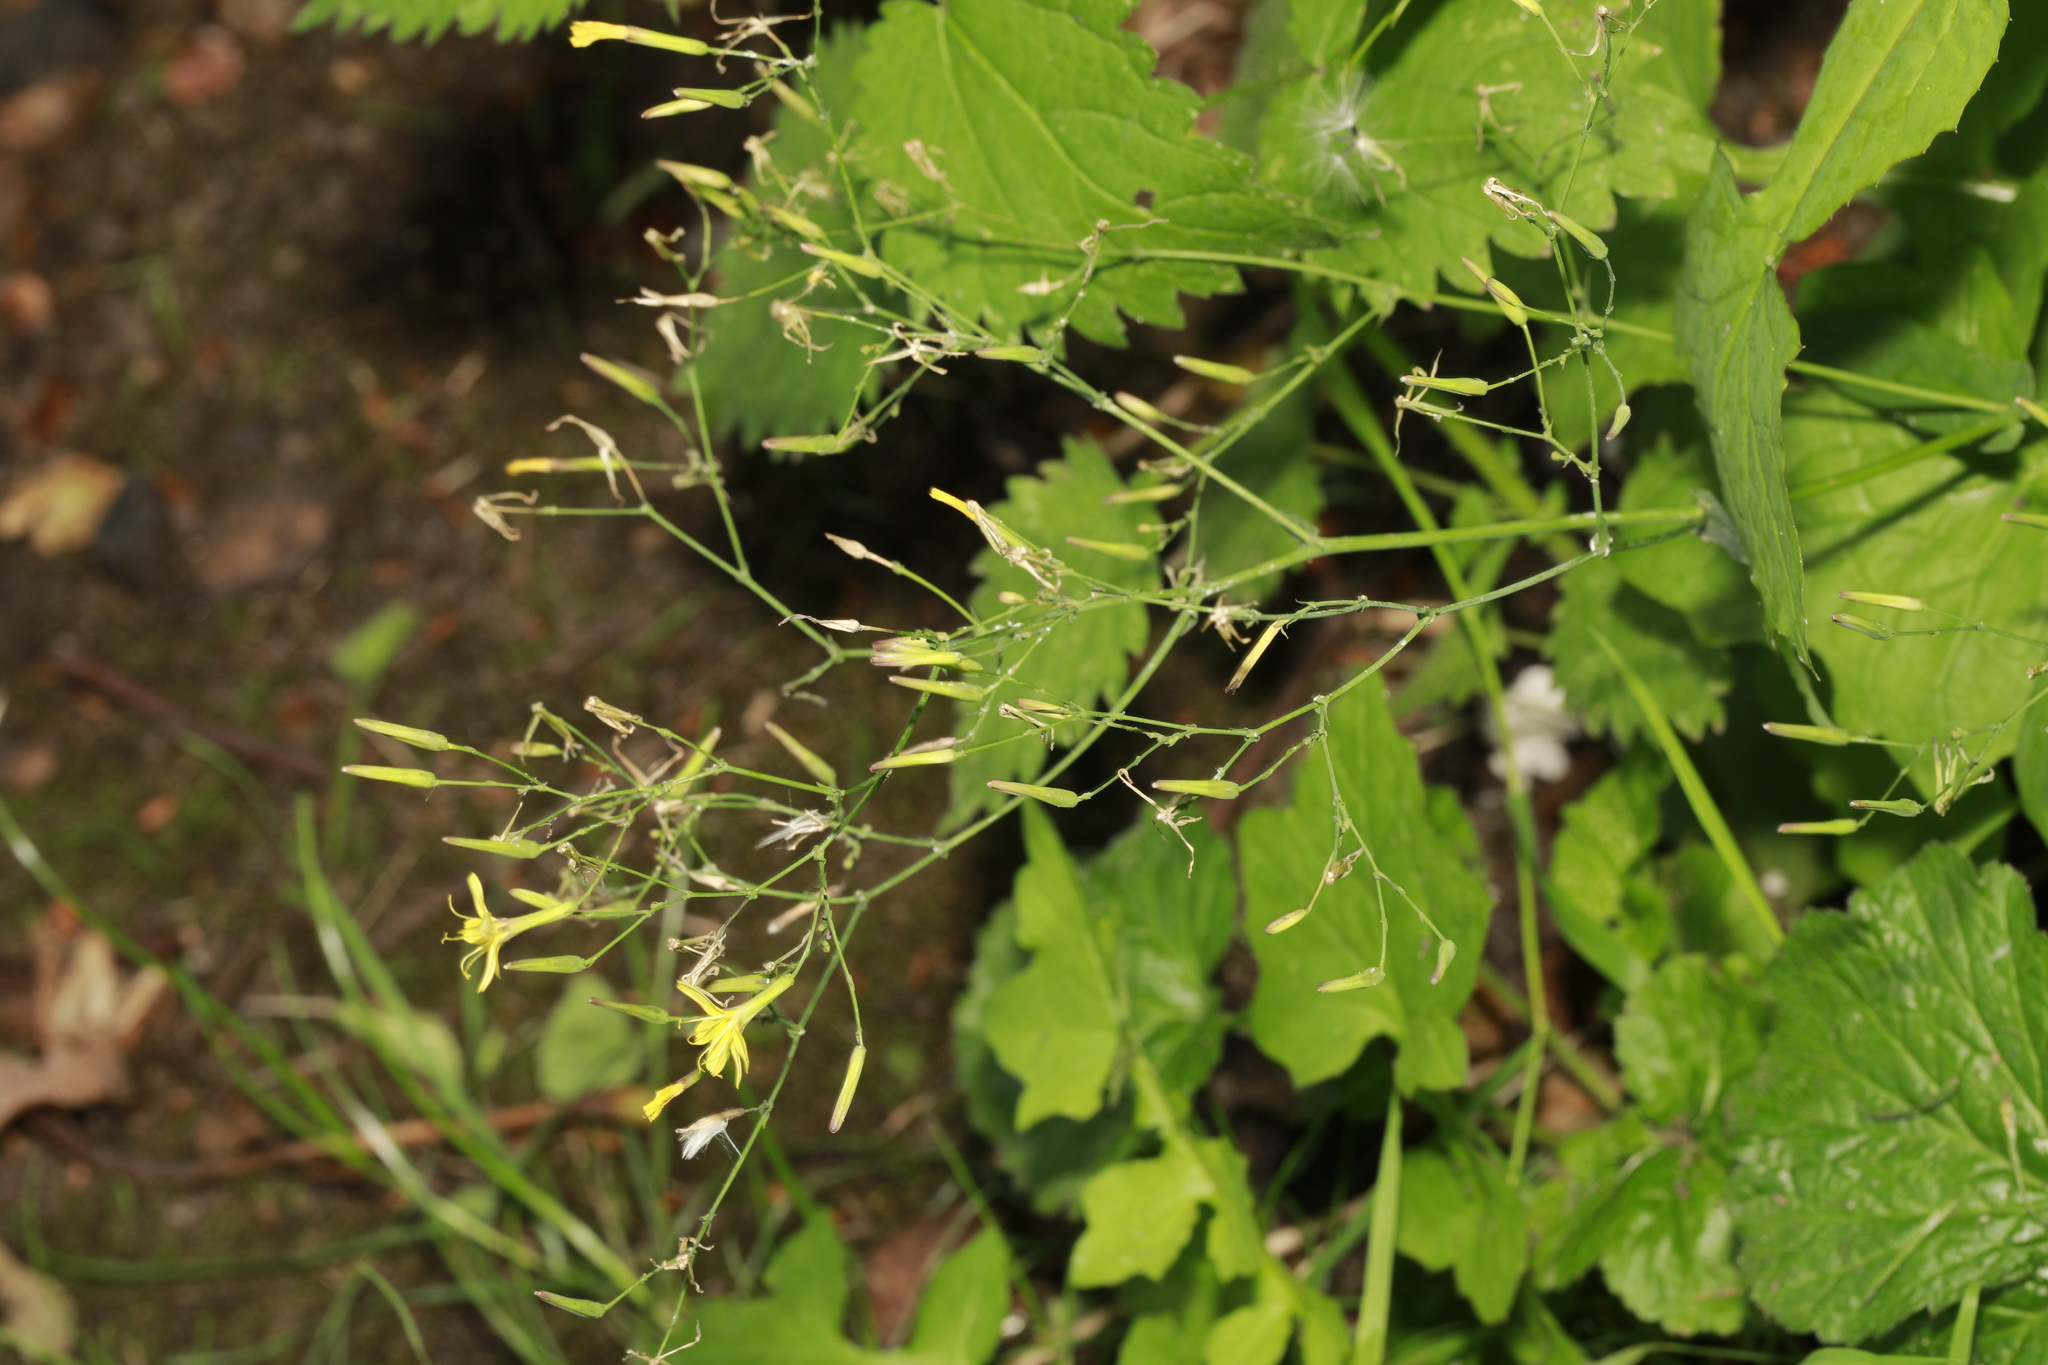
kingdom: Plantae
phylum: Tracheophyta
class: Magnoliopsida
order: Asterales
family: Asteraceae
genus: Mycelis
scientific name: Mycelis muralis
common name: Wall lettuce
